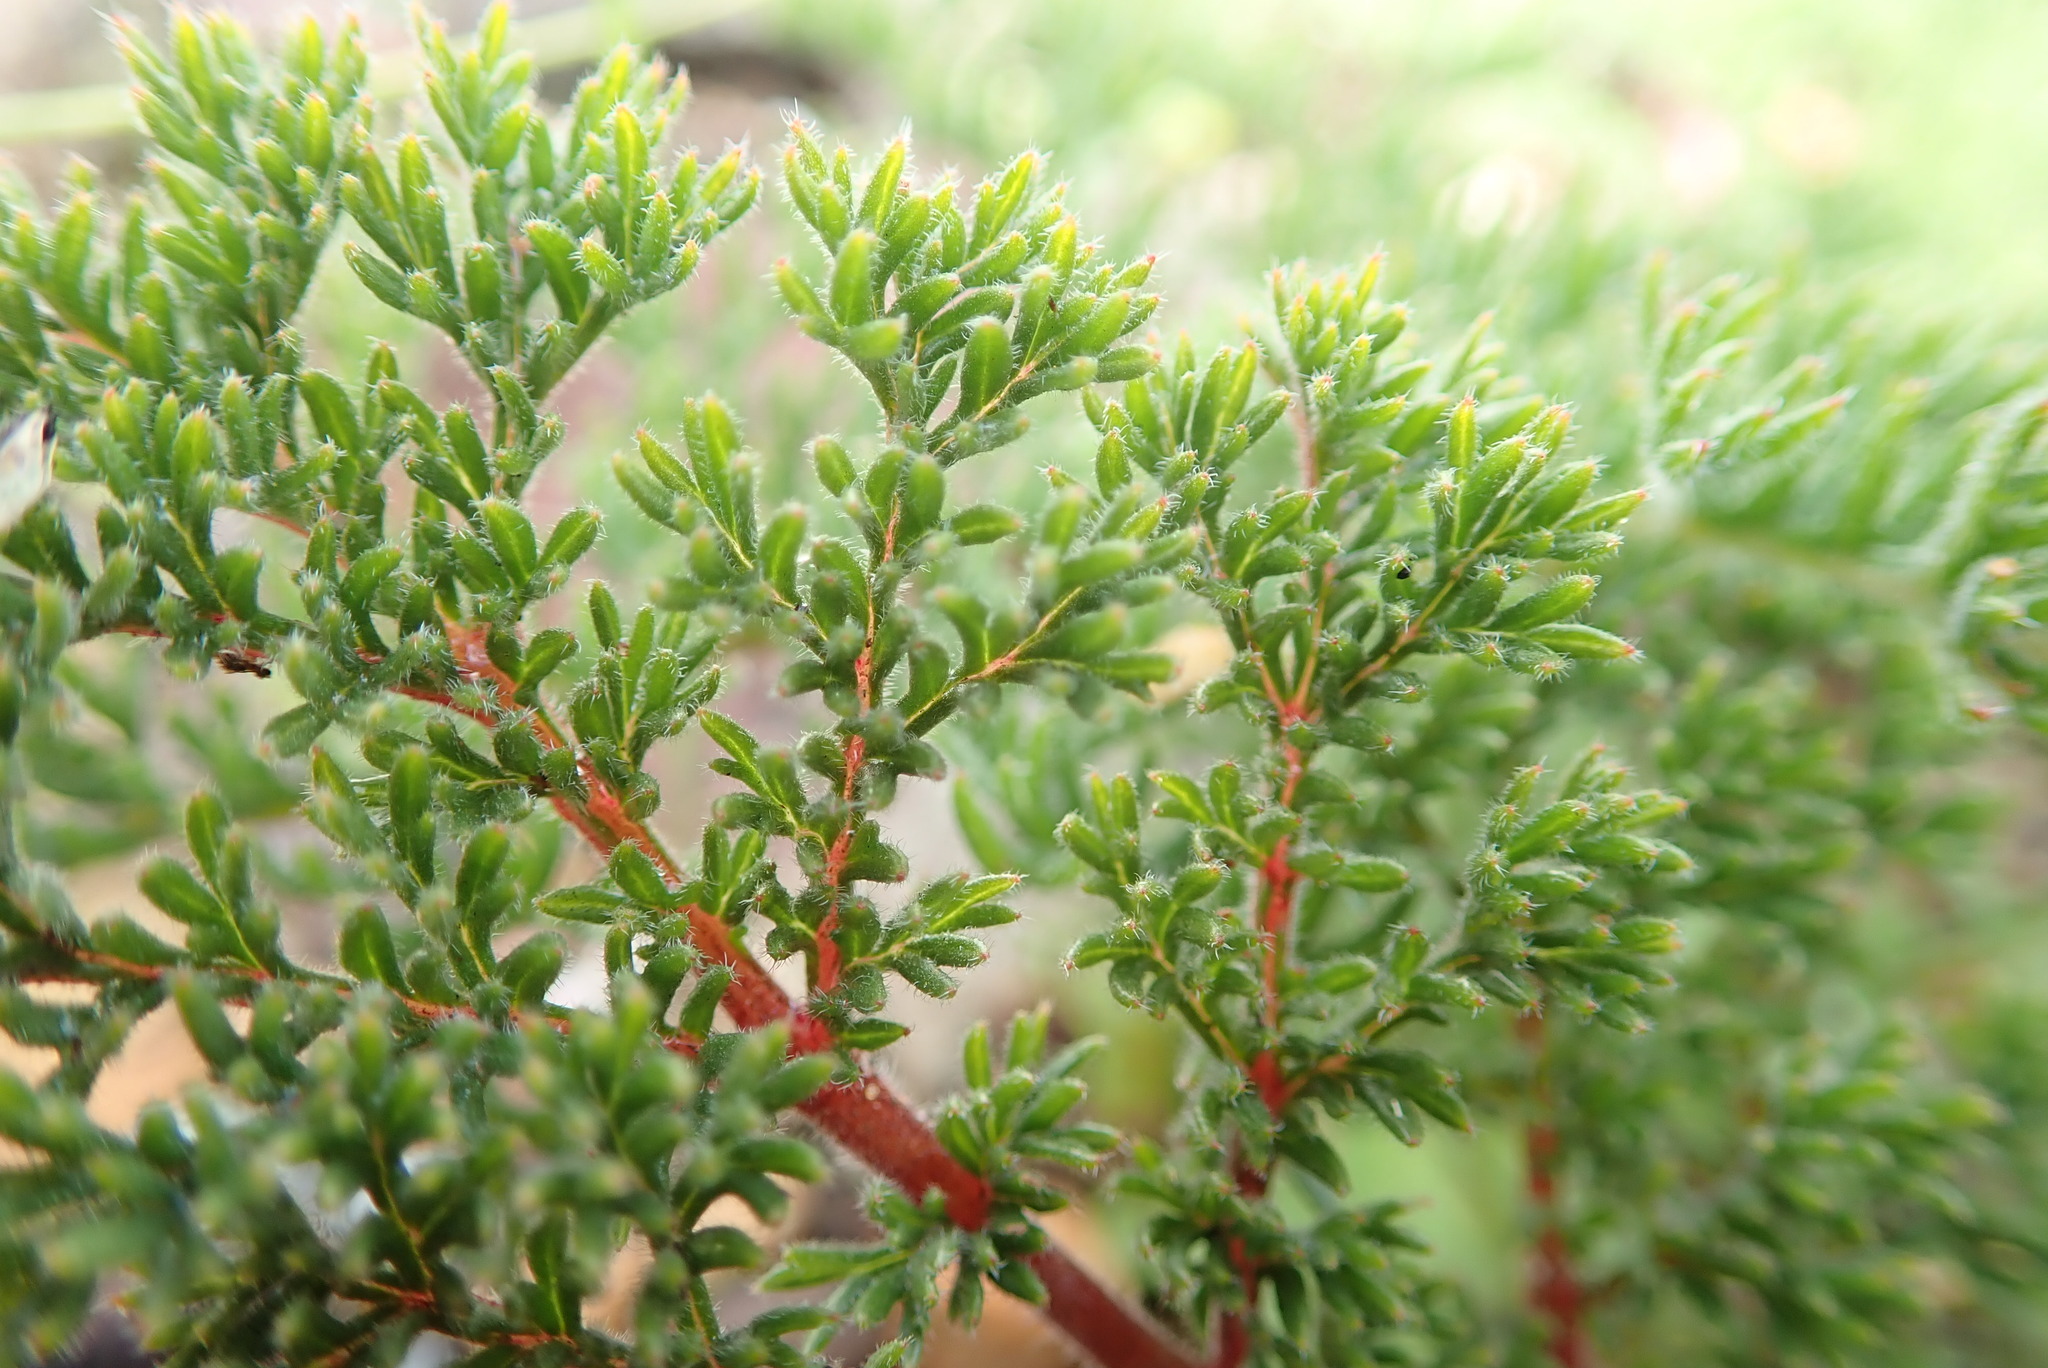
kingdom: Plantae
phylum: Tracheophyta
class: Magnoliopsida
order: Geraniales
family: Geraniaceae
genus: Pelargonium
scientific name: Pelargonium triste
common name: Night-scent pelargonium
